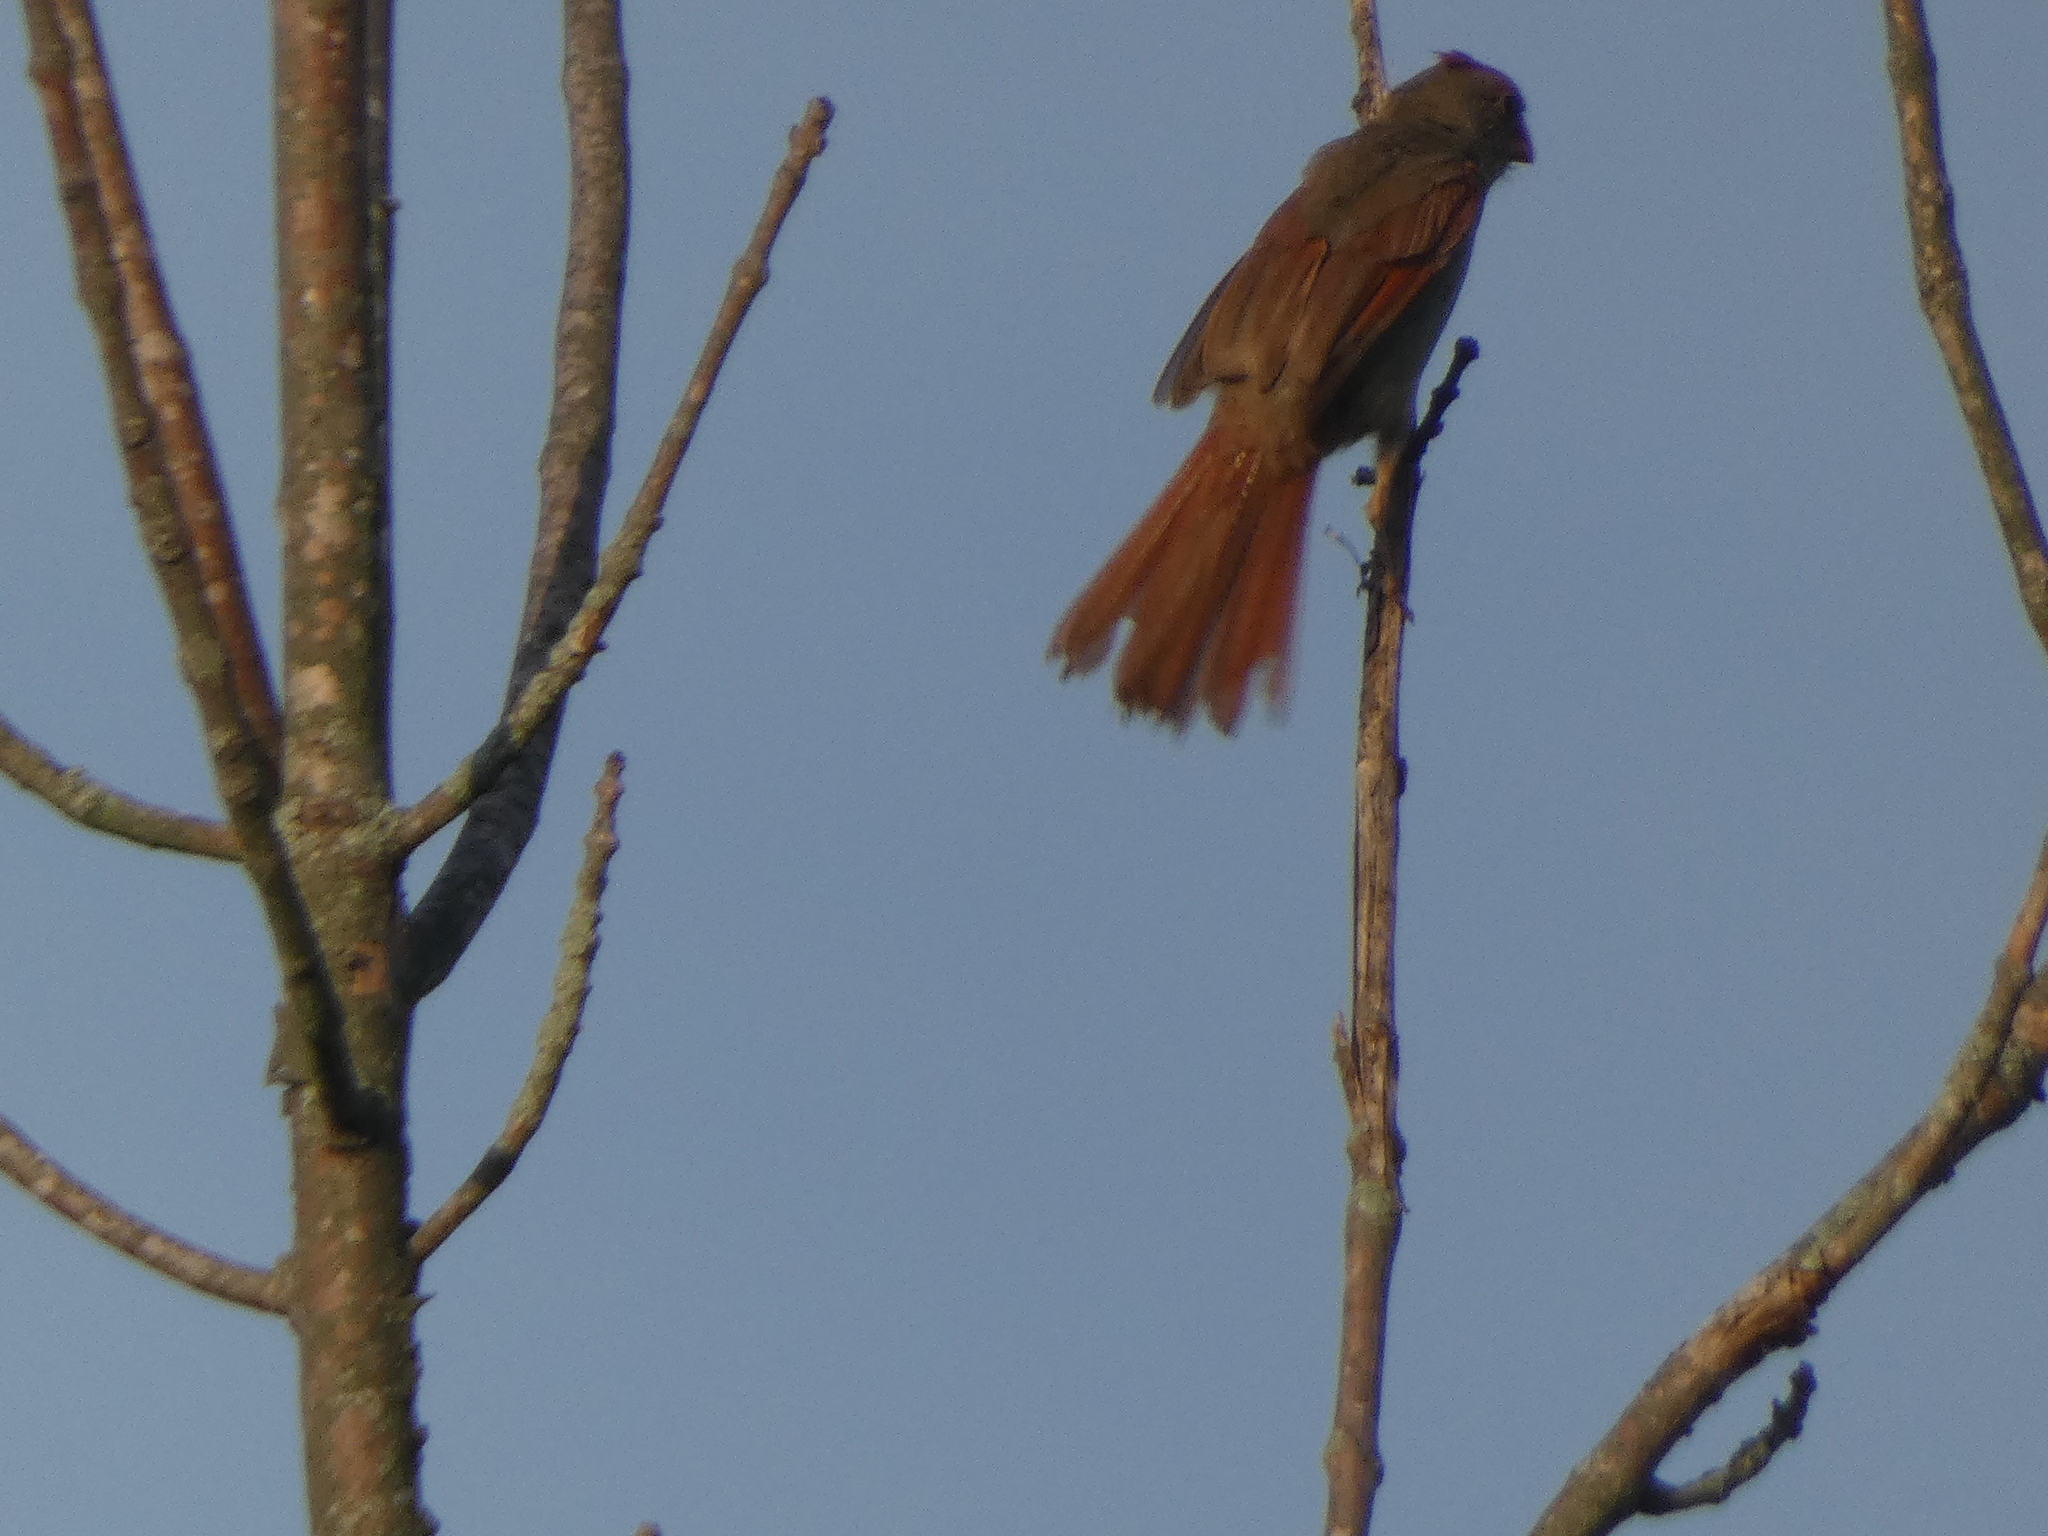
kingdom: Animalia
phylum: Chordata
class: Aves
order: Passeriformes
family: Cardinalidae
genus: Cardinalis
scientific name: Cardinalis cardinalis
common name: Northern cardinal
